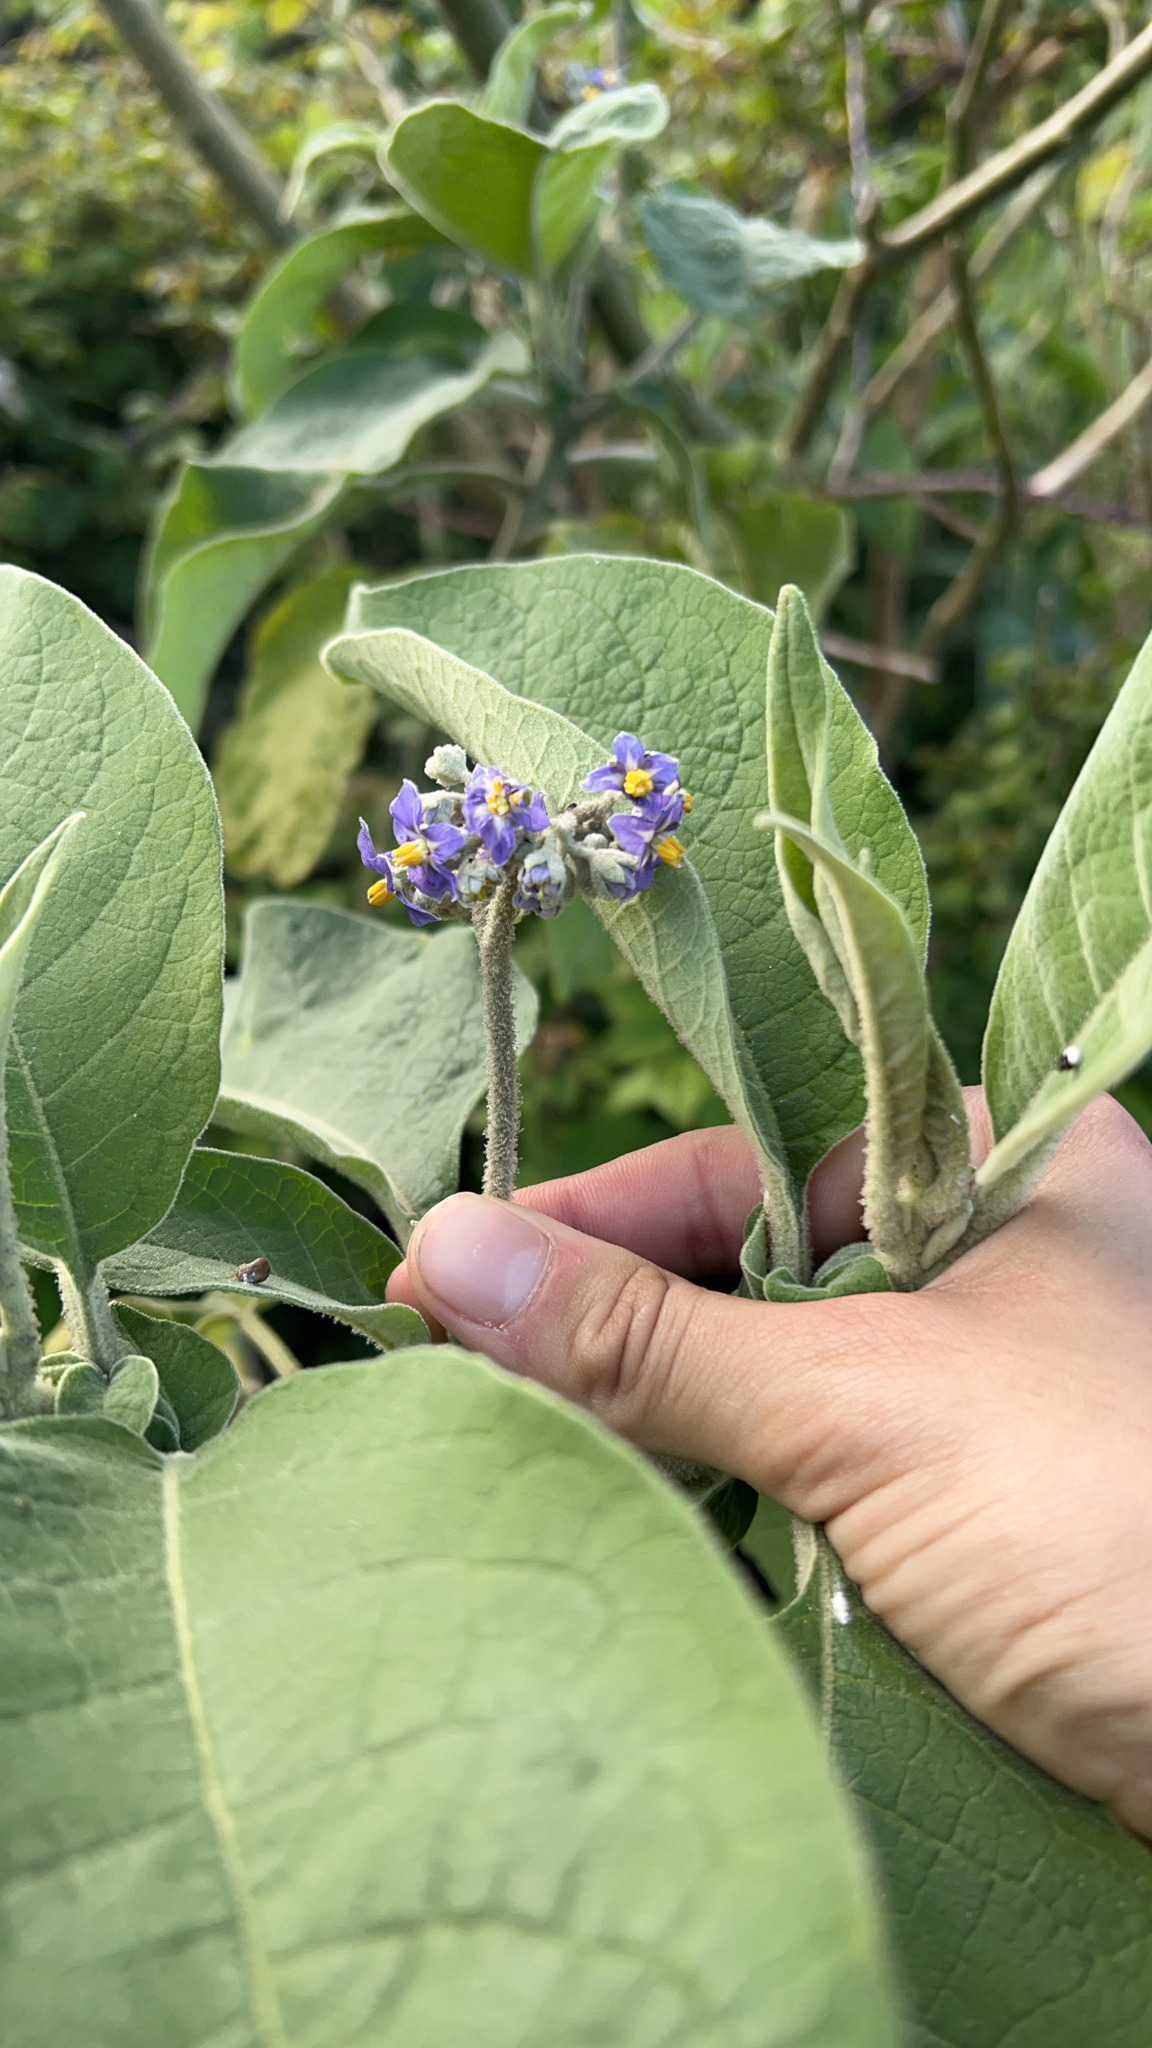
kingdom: Plantae
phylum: Tracheophyta
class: Magnoliopsida
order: Solanales
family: Solanaceae
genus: Solanum
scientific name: Solanum mauritianum
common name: Earleaf nightshade
